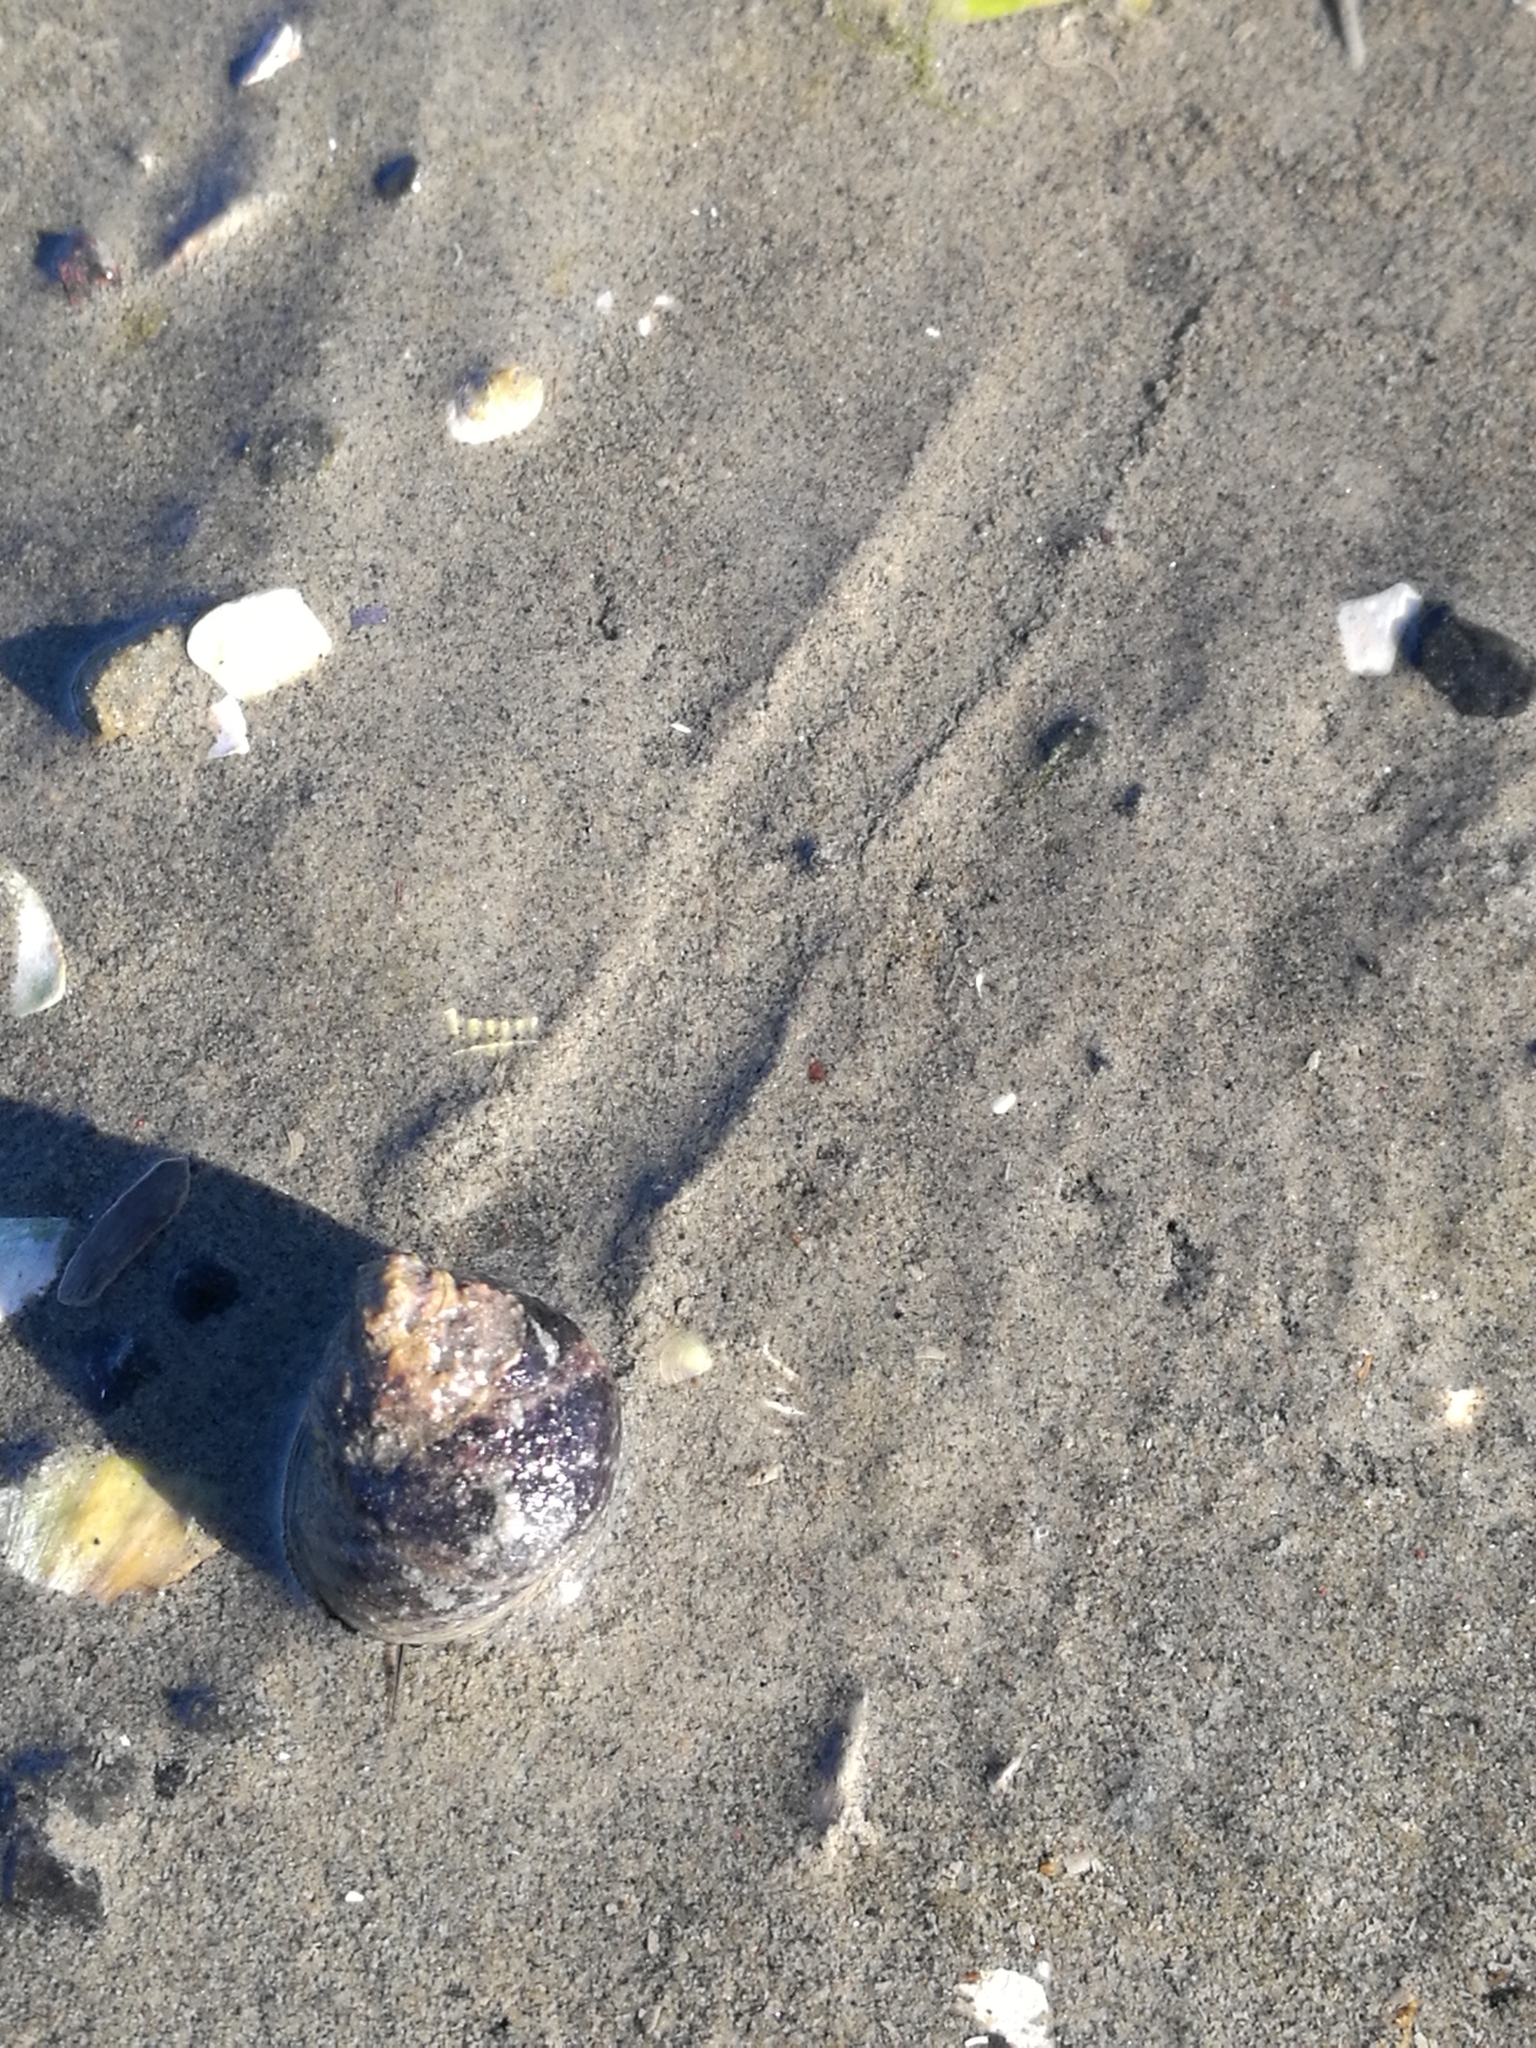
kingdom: Animalia
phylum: Mollusca
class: Gastropoda
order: Trochida
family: Trochidae
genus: Diloma
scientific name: Diloma subrostratum
